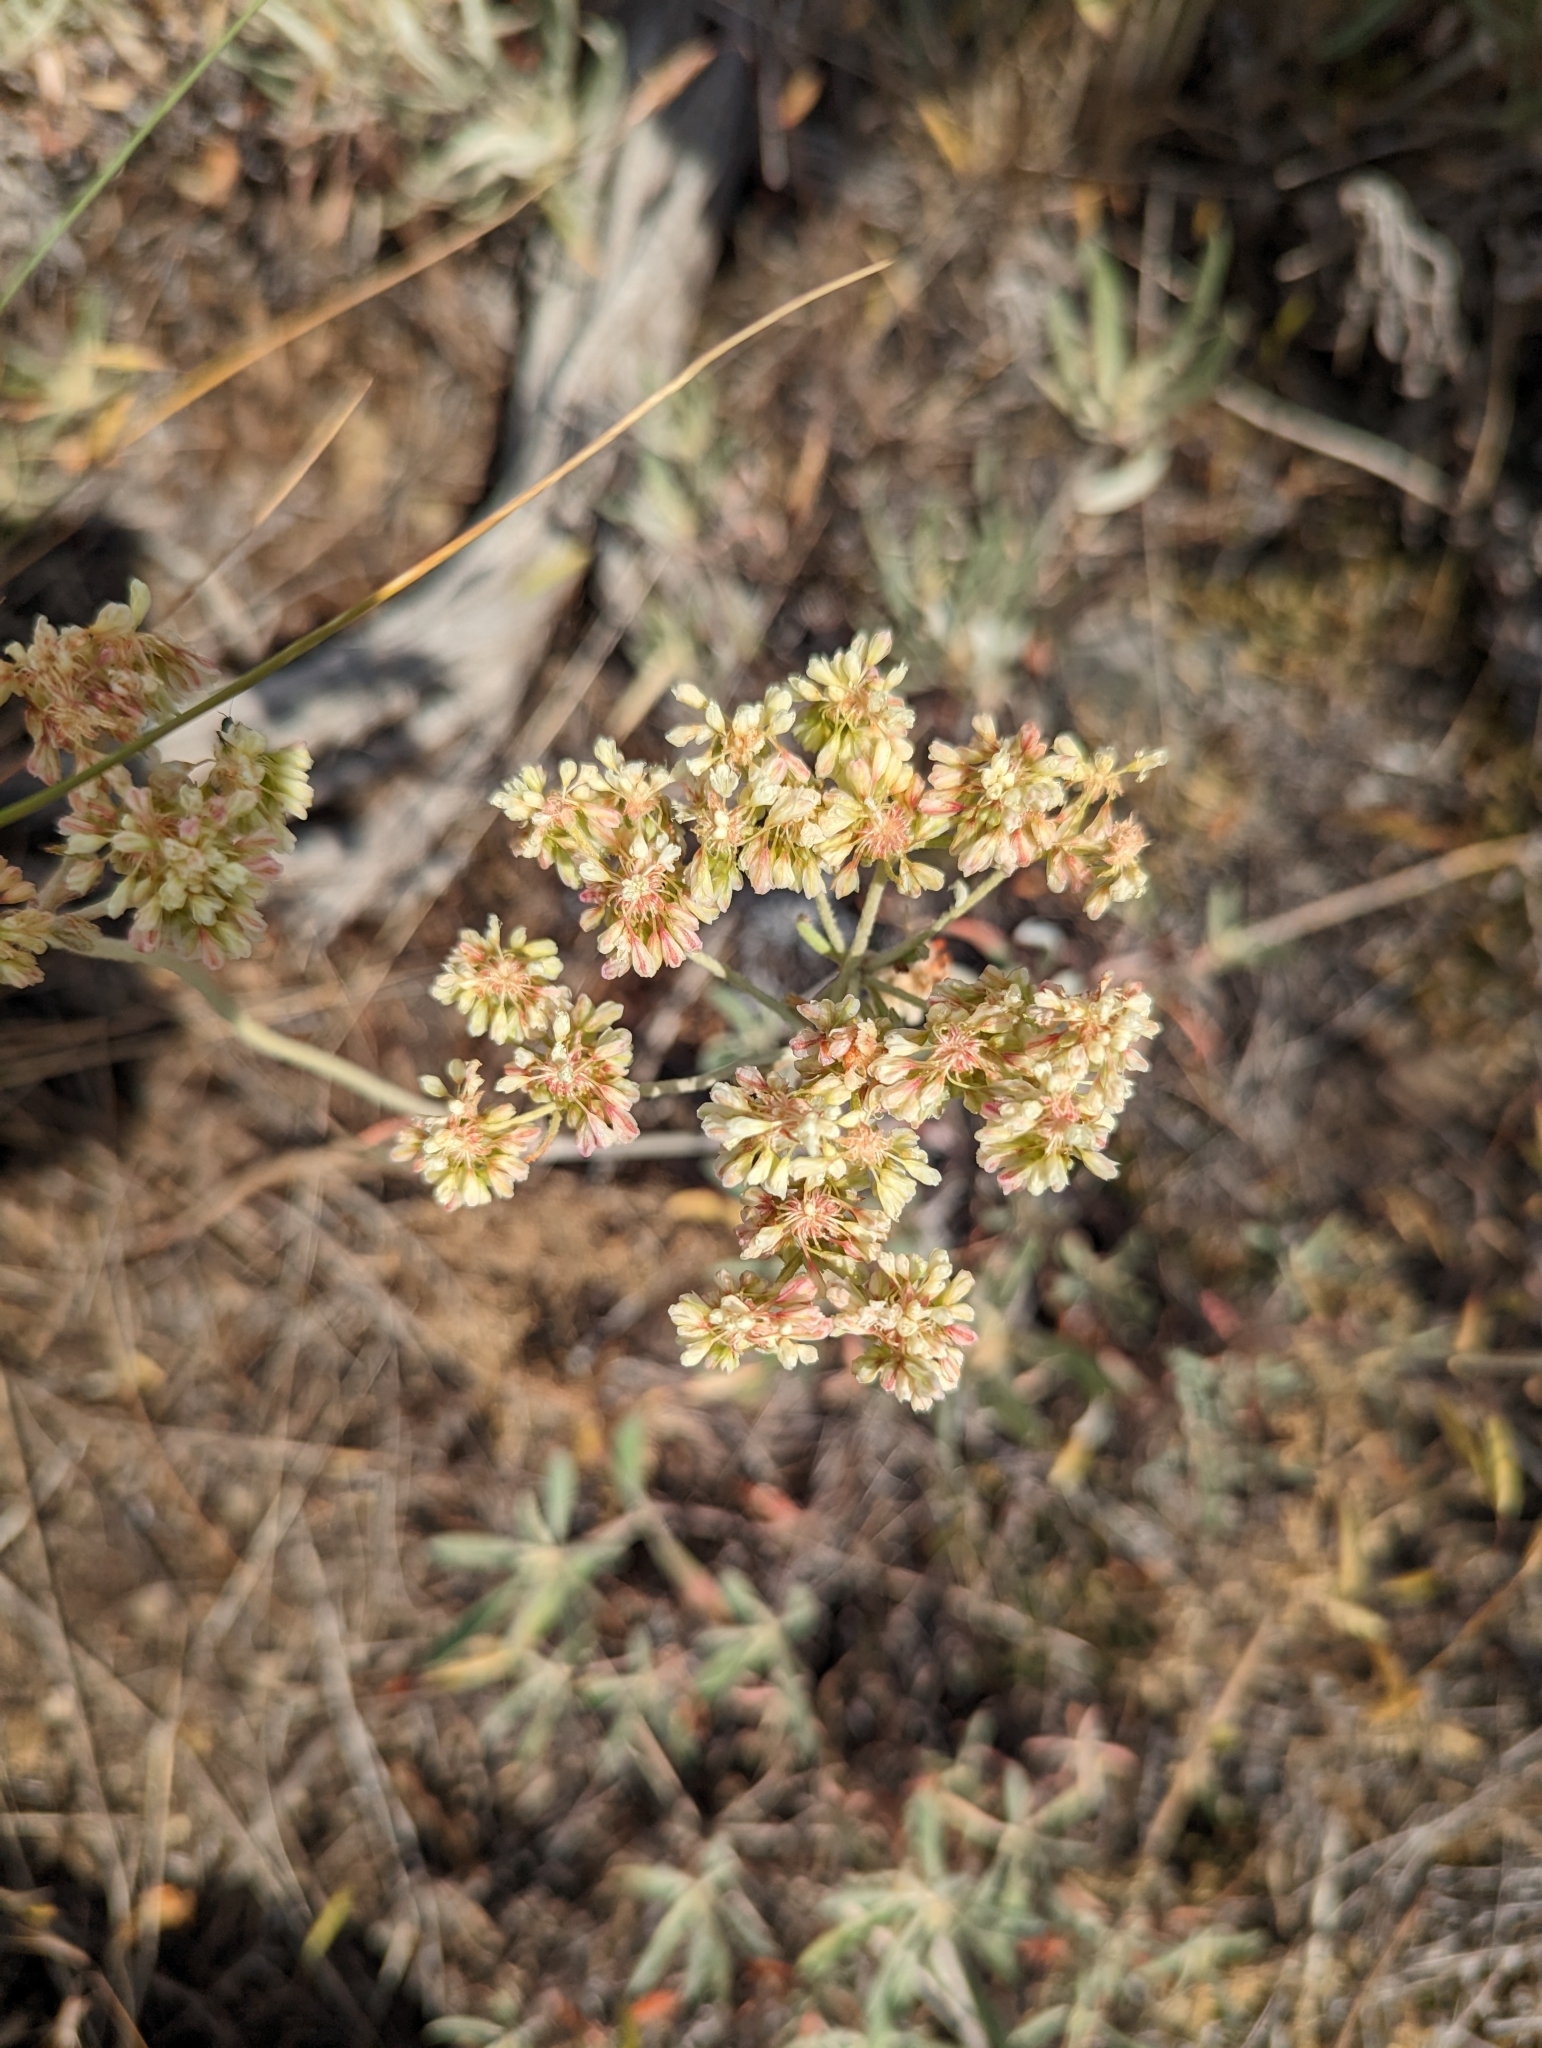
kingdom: Plantae
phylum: Tracheophyta
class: Magnoliopsida
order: Caryophyllales
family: Polygonaceae
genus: Eriogonum
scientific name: Eriogonum heracleoides
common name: Wyeth's buckwheat
